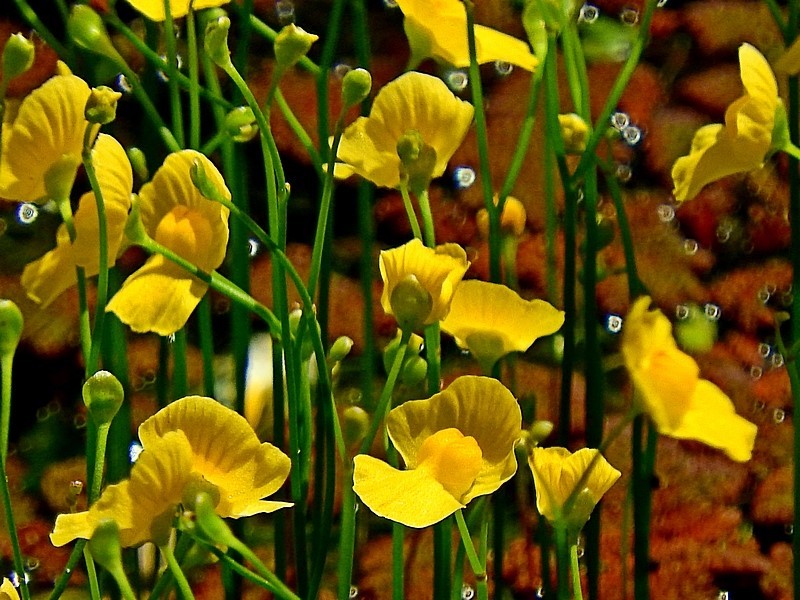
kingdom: Plantae
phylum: Tracheophyta
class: Magnoliopsida
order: Lamiales
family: Lentibulariaceae
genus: Utricularia
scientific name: Utricularia gibba
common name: Humped bladderwort
